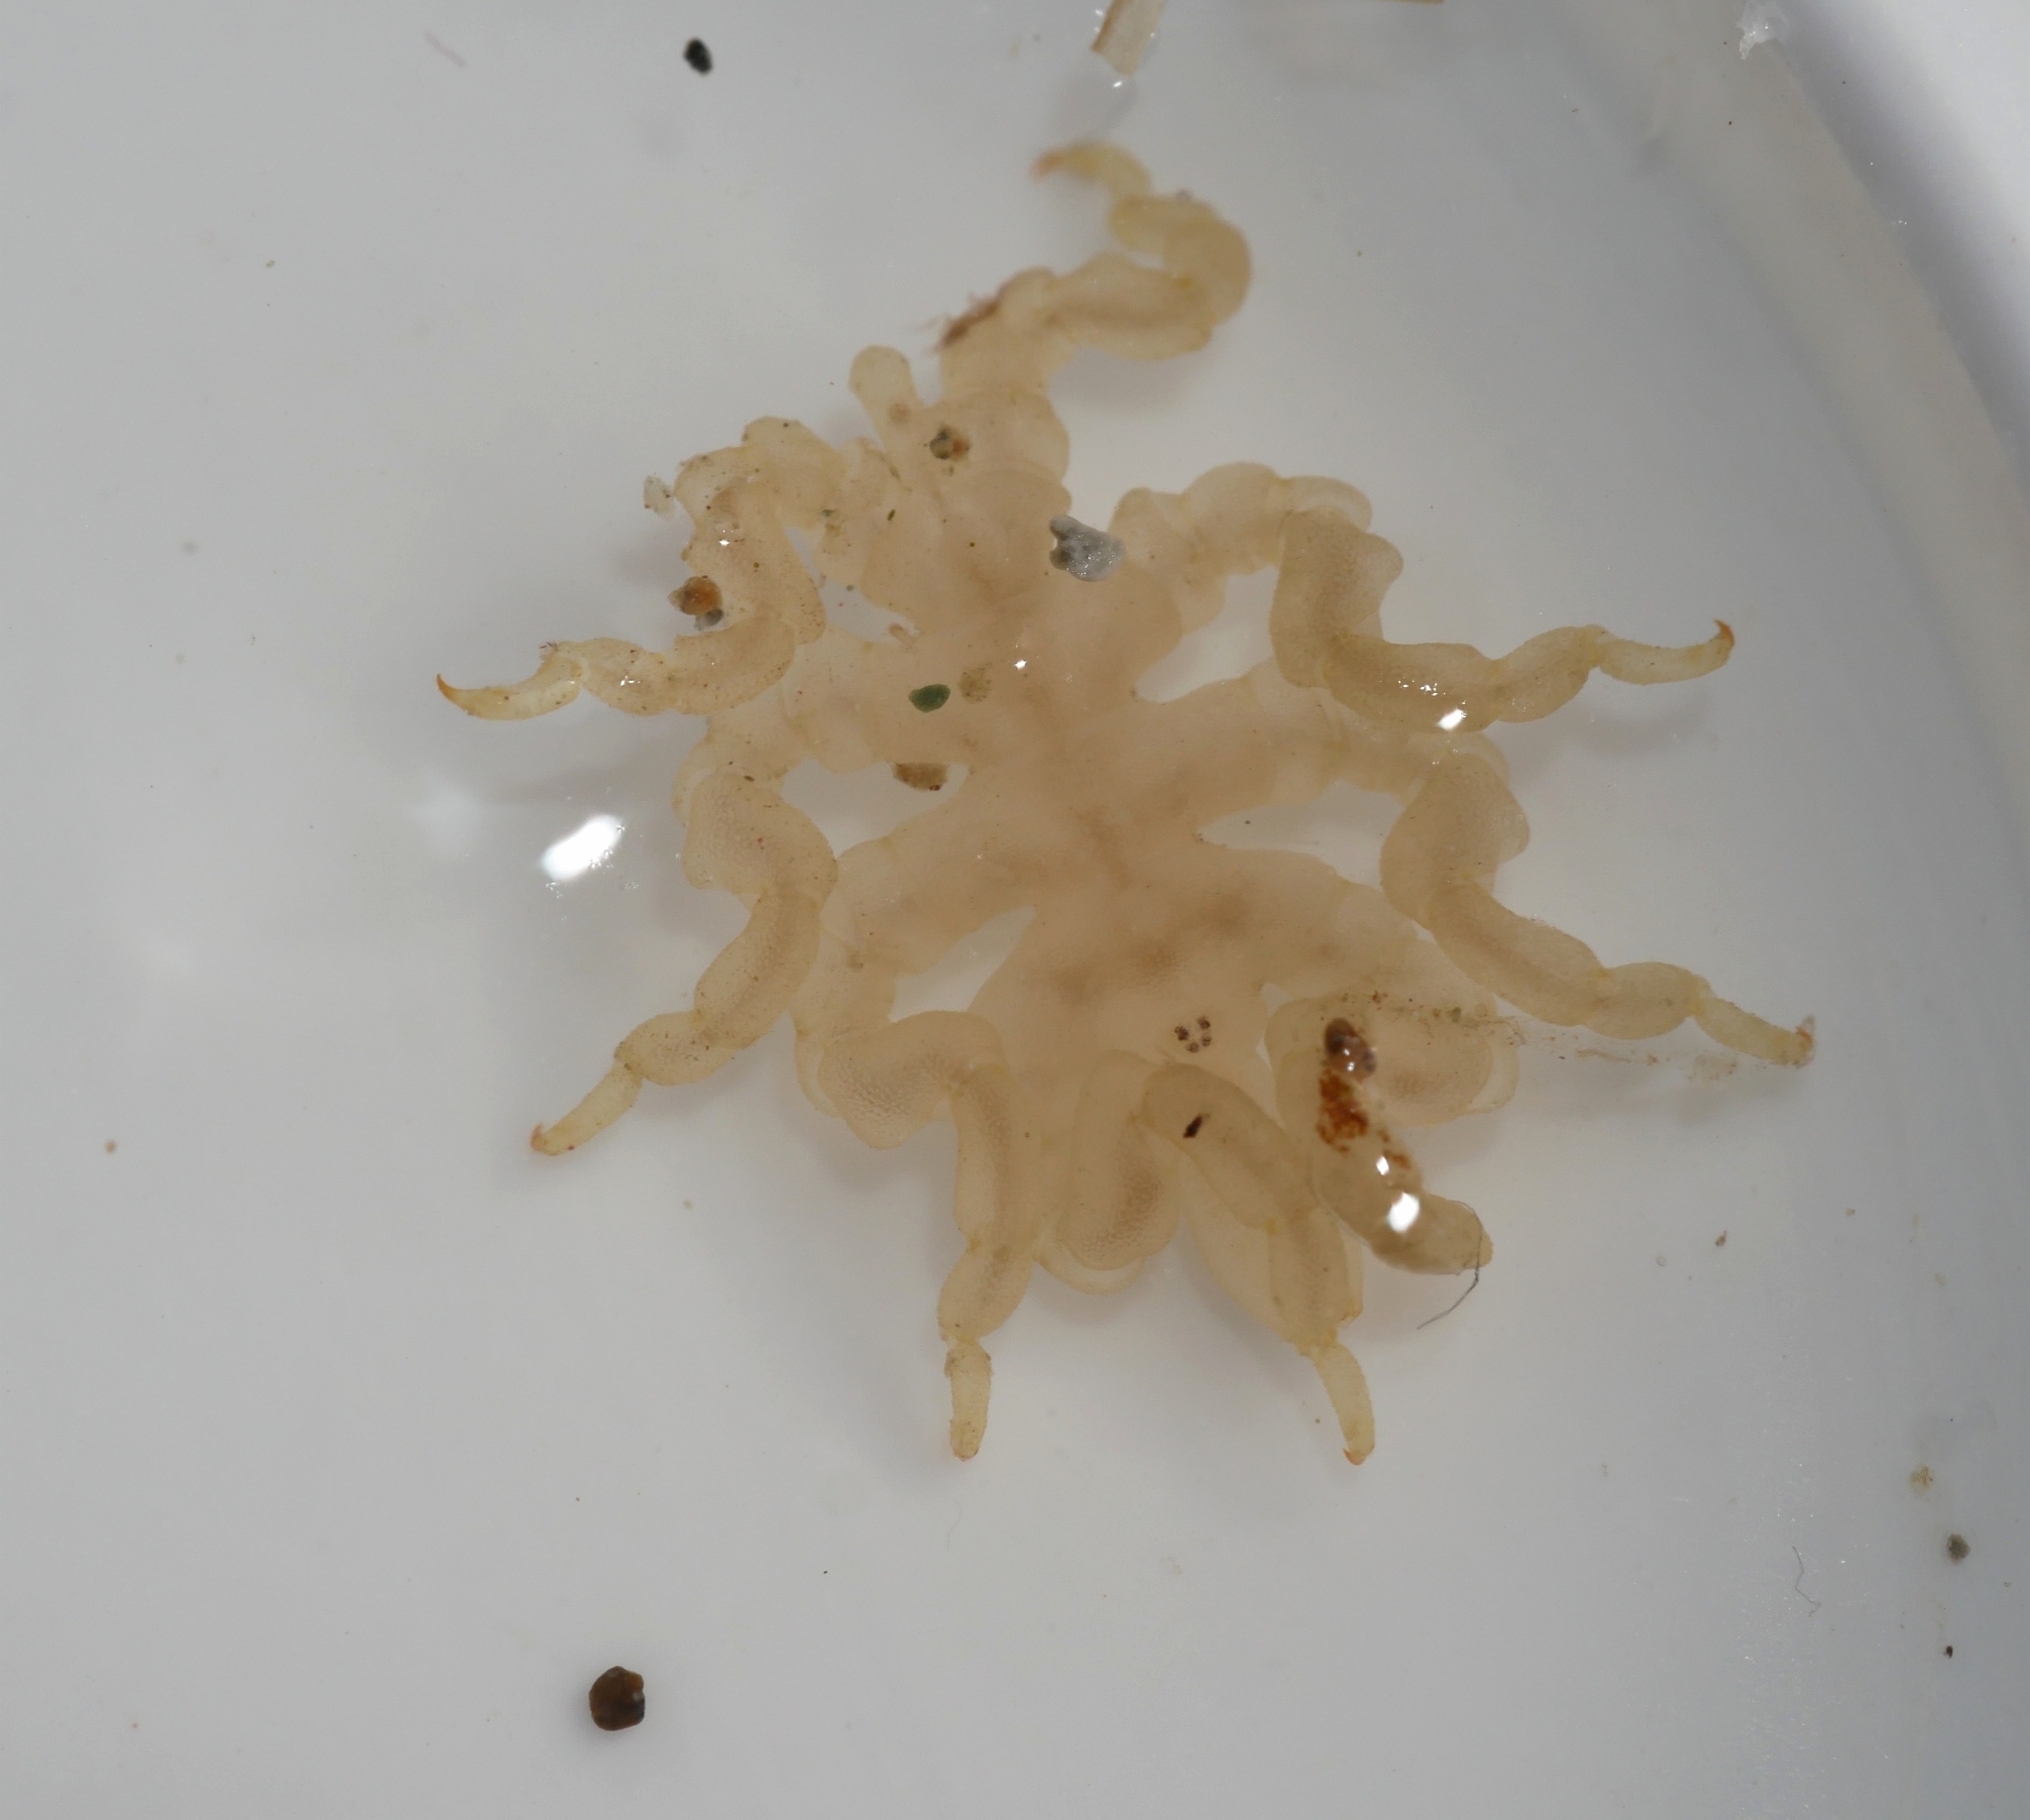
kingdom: Animalia
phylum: Arthropoda
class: Pycnogonida
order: Pantopoda
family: Pycnogonidae
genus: Pycnogonum
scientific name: Pycnogonum stearnsi
